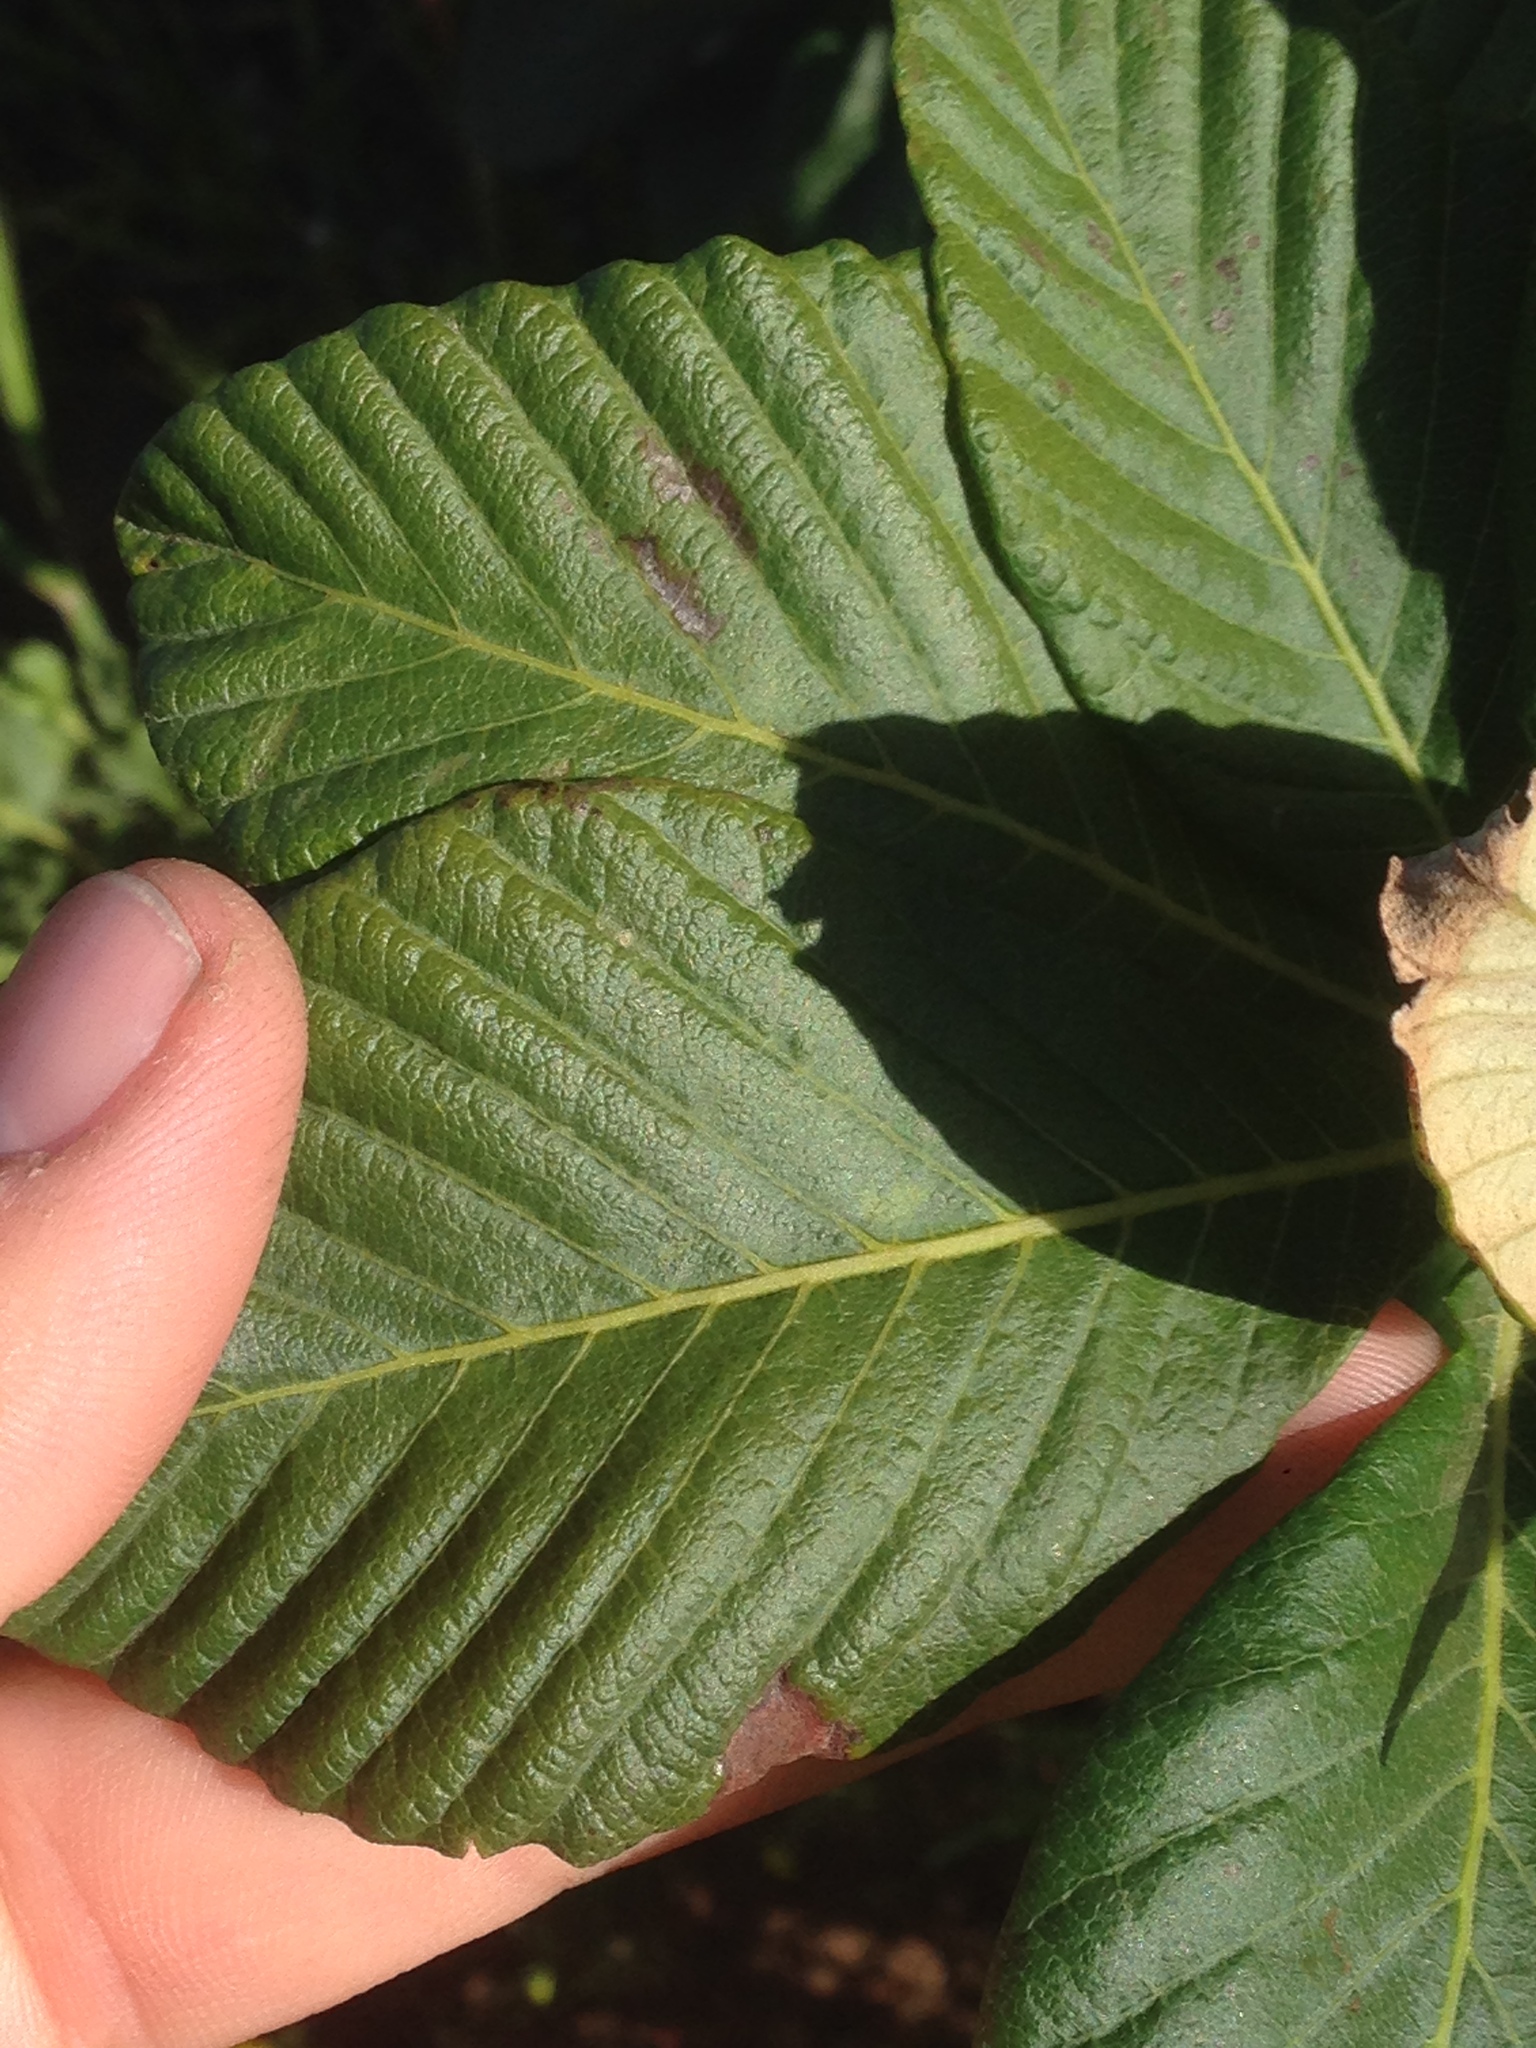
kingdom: Plantae
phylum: Tracheophyta
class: Magnoliopsida
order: Sapindales
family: Sapindaceae
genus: Aesculus
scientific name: Aesculus parryi
